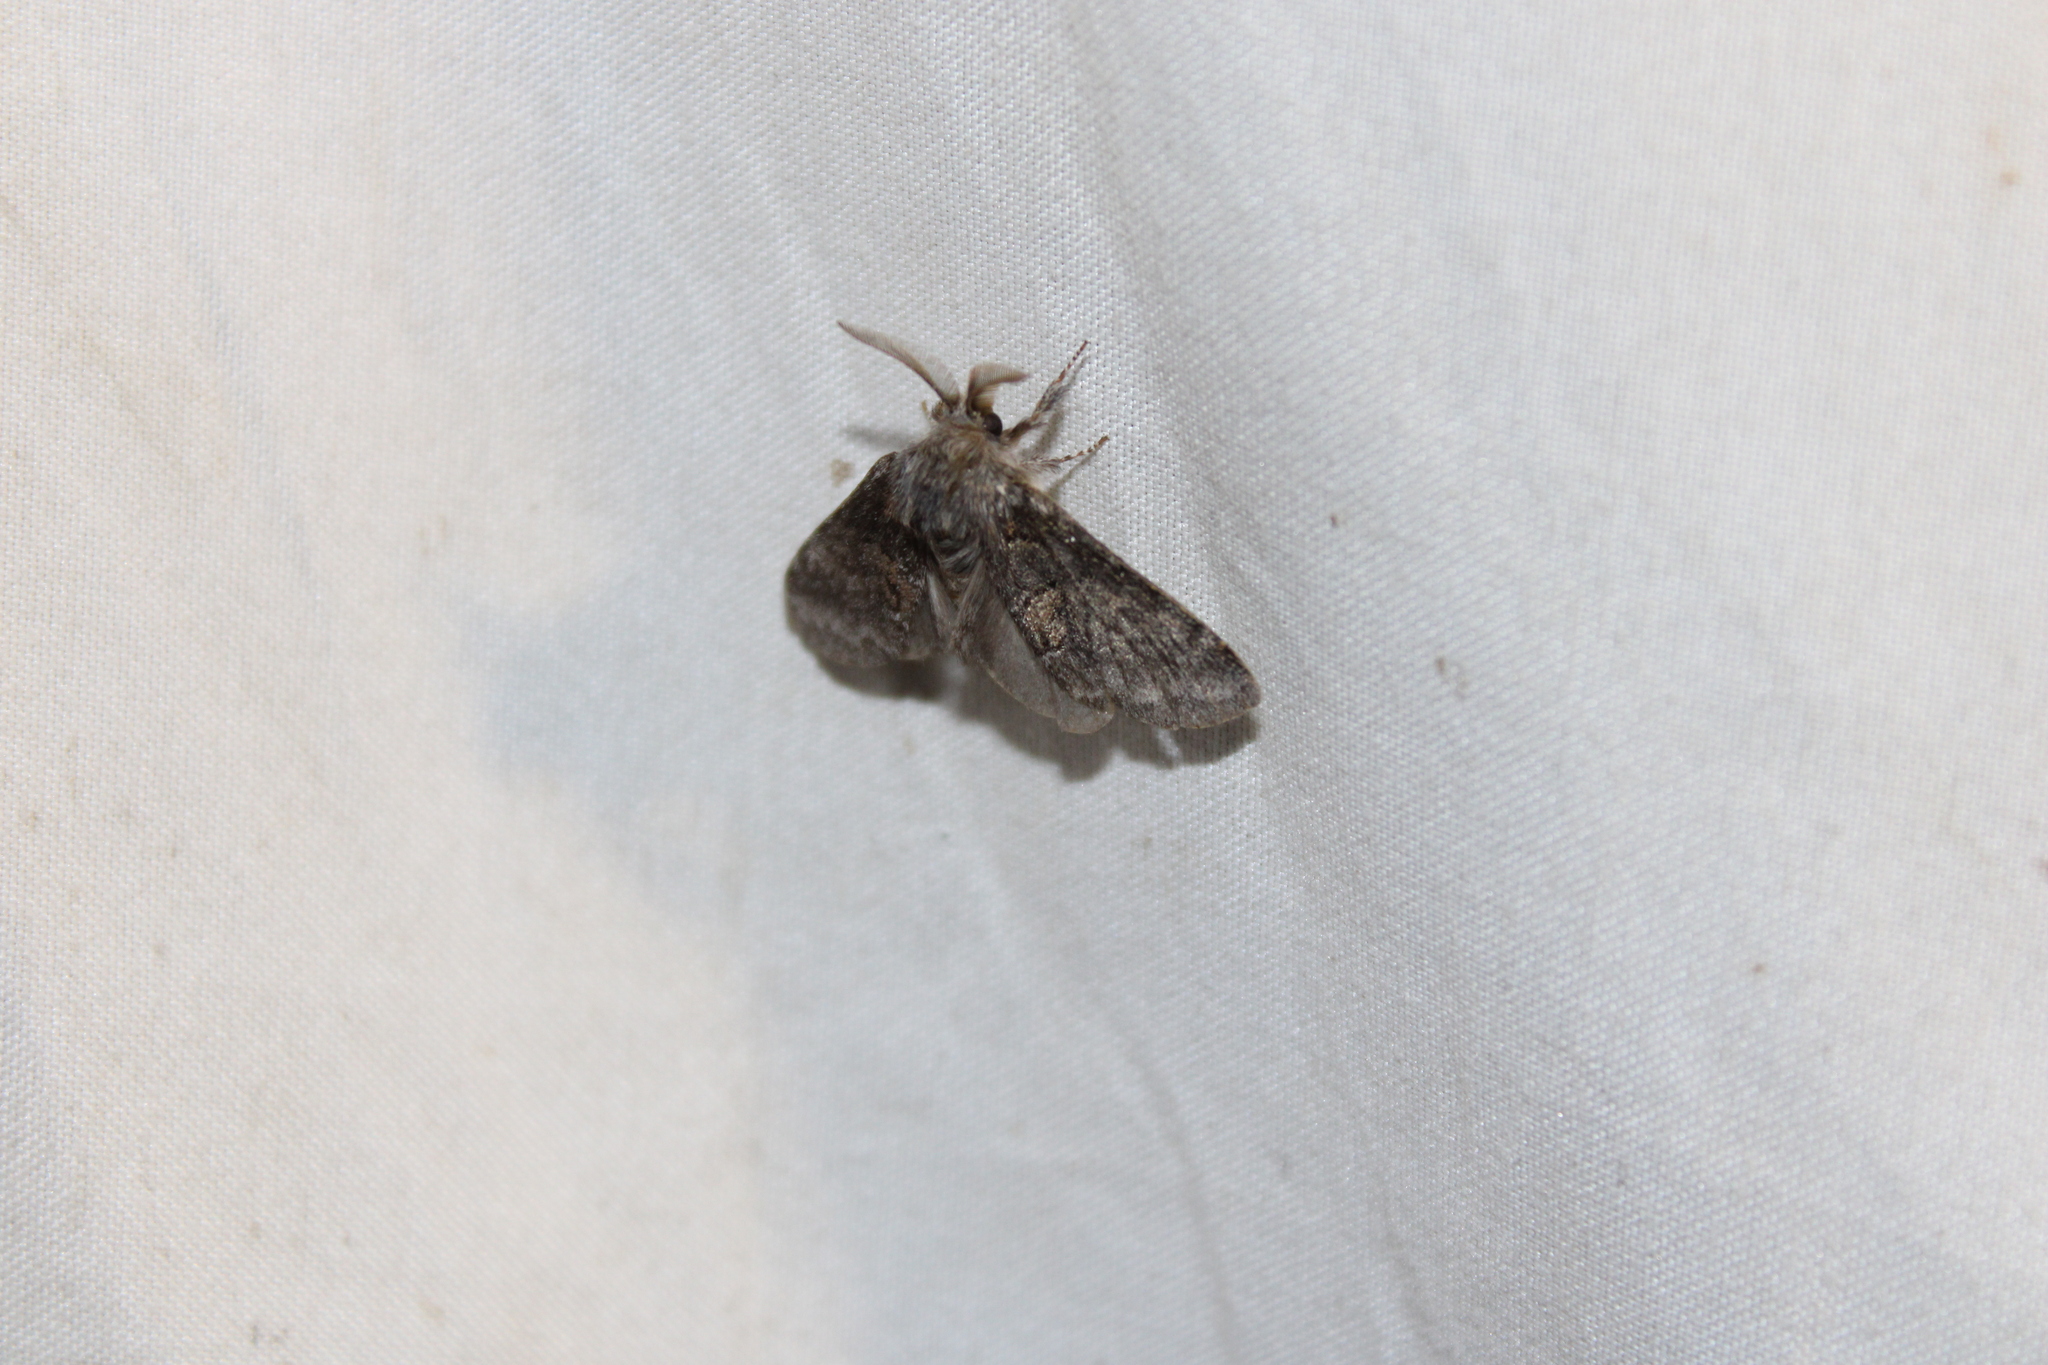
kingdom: Animalia
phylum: Arthropoda
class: Insecta
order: Lepidoptera
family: Notodontidae
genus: Gluphisia
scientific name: Gluphisia septentrionis
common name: Common gluphisia
